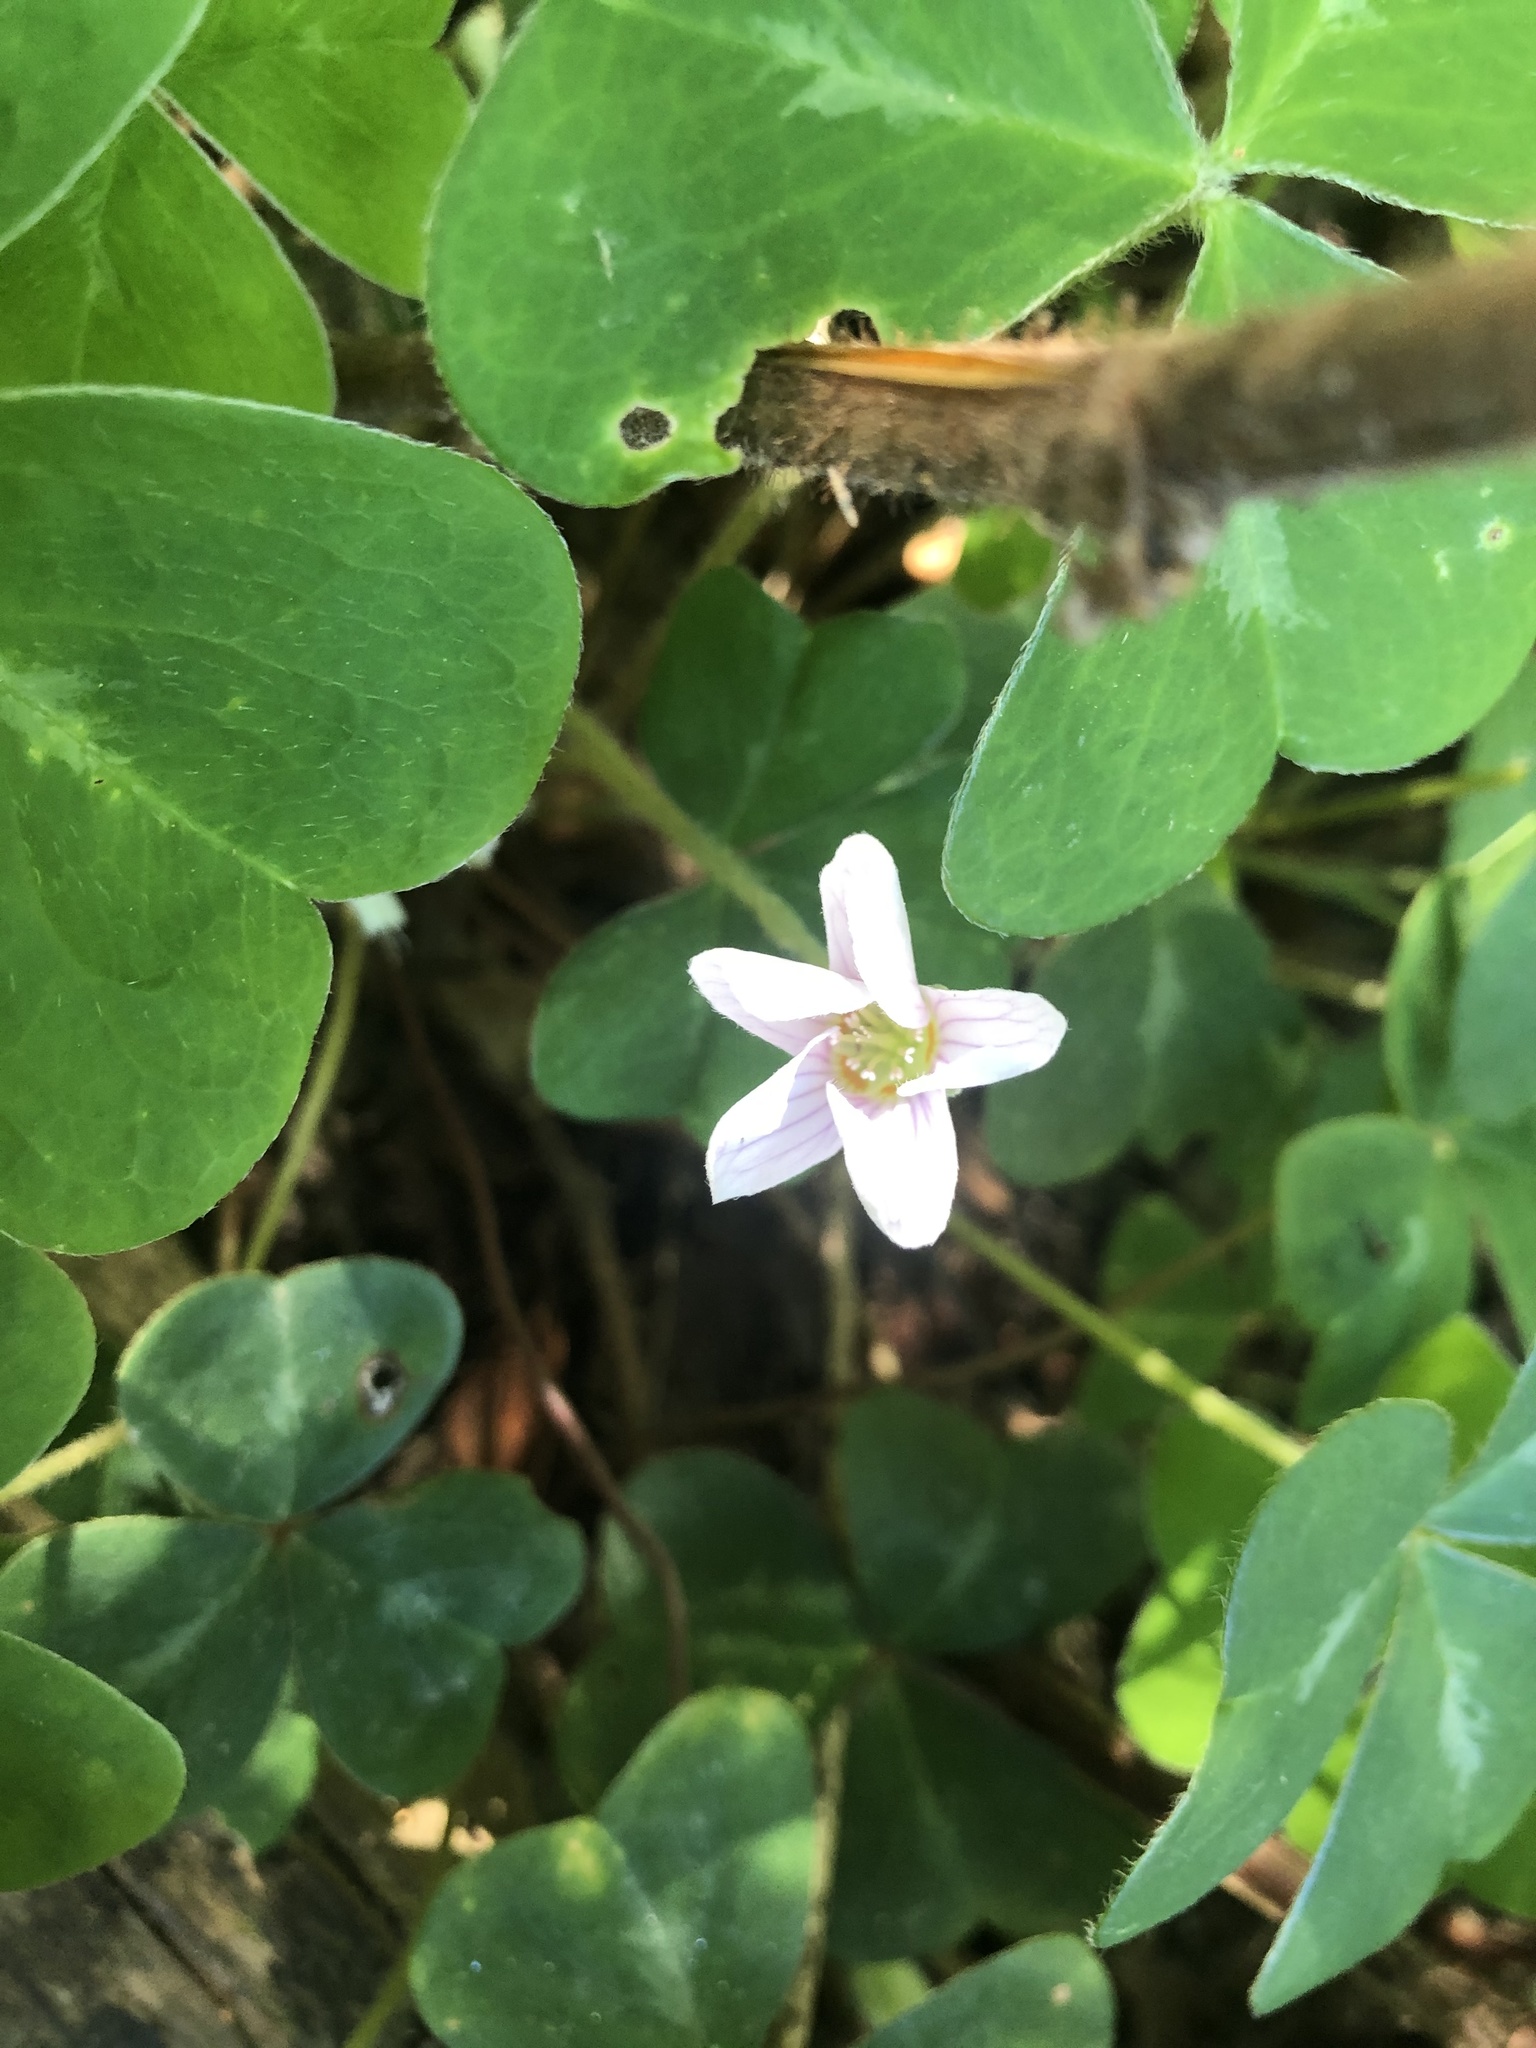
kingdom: Plantae
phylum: Tracheophyta
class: Magnoliopsida
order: Oxalidales
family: Oxalidaceae
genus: Oxalis
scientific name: Oxalis oregana
